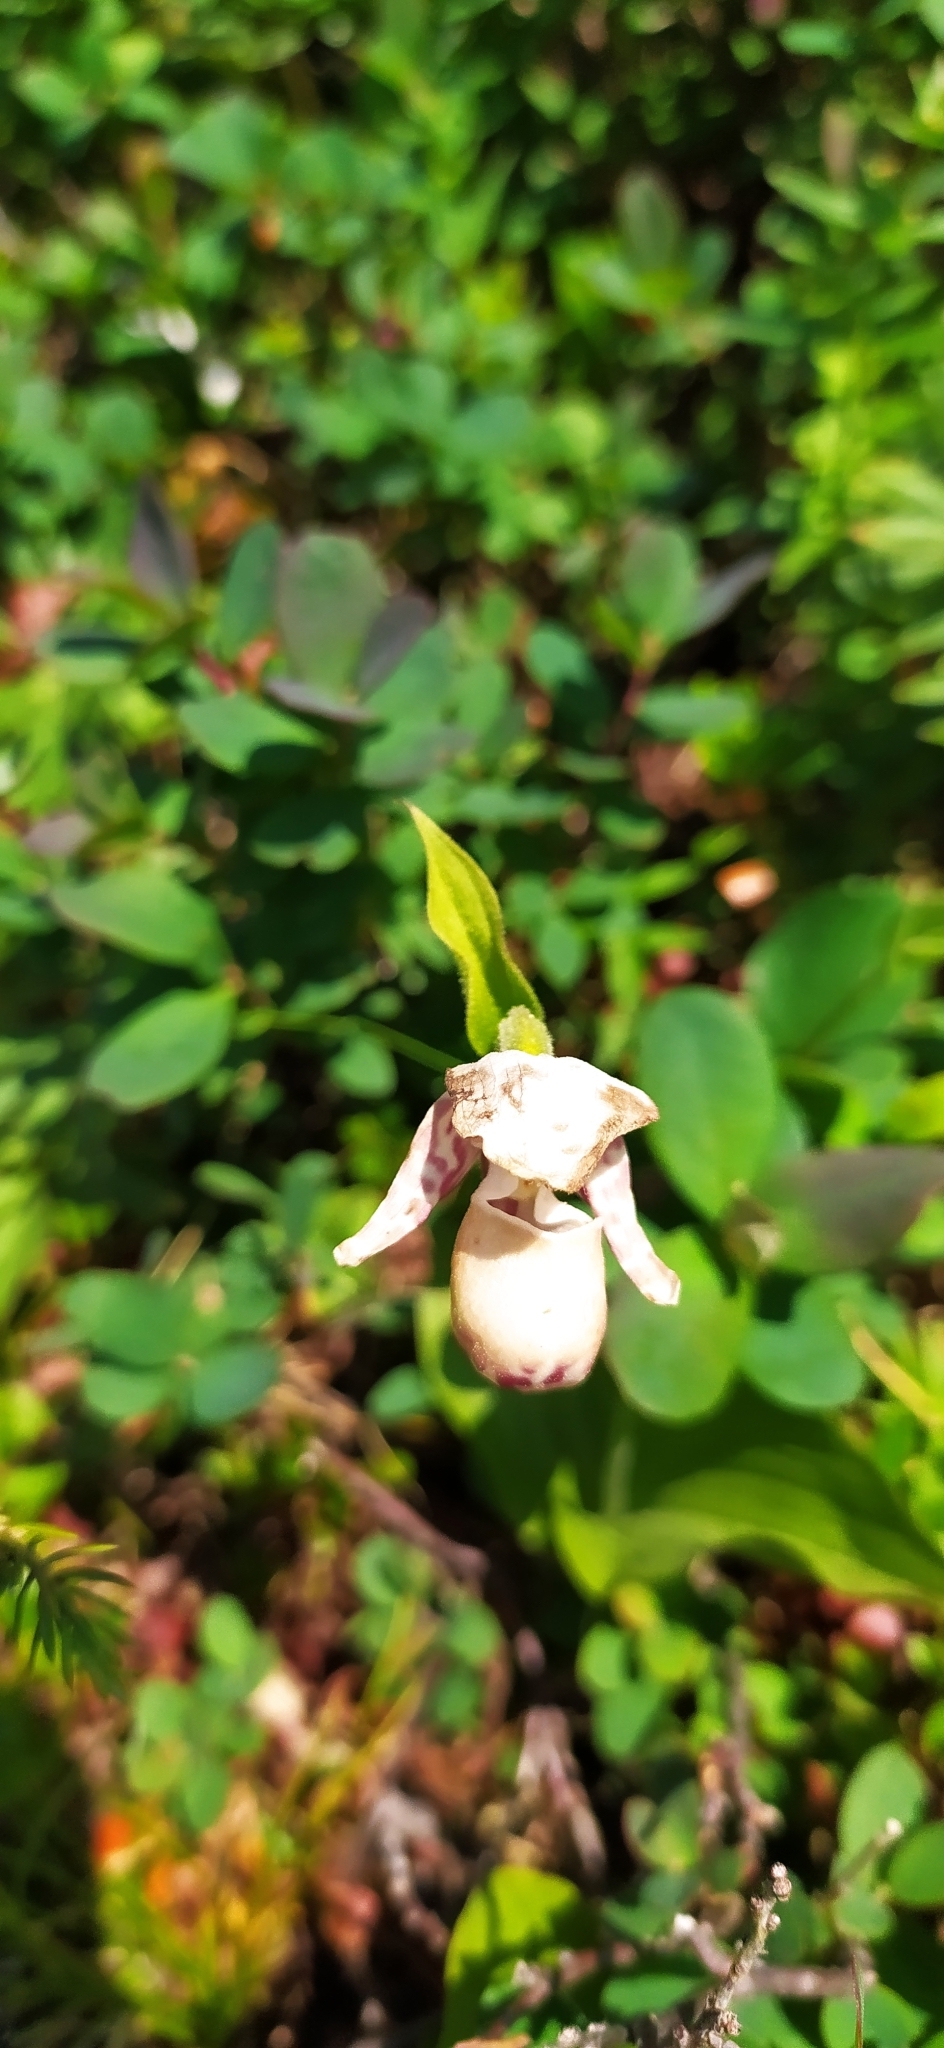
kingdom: Plantae
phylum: Tracheophyta
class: Liliopsida
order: Asparagales
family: Orchidaceae
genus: Cypripedium
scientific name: Cypripedium guttatum
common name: Pink lady slipper
